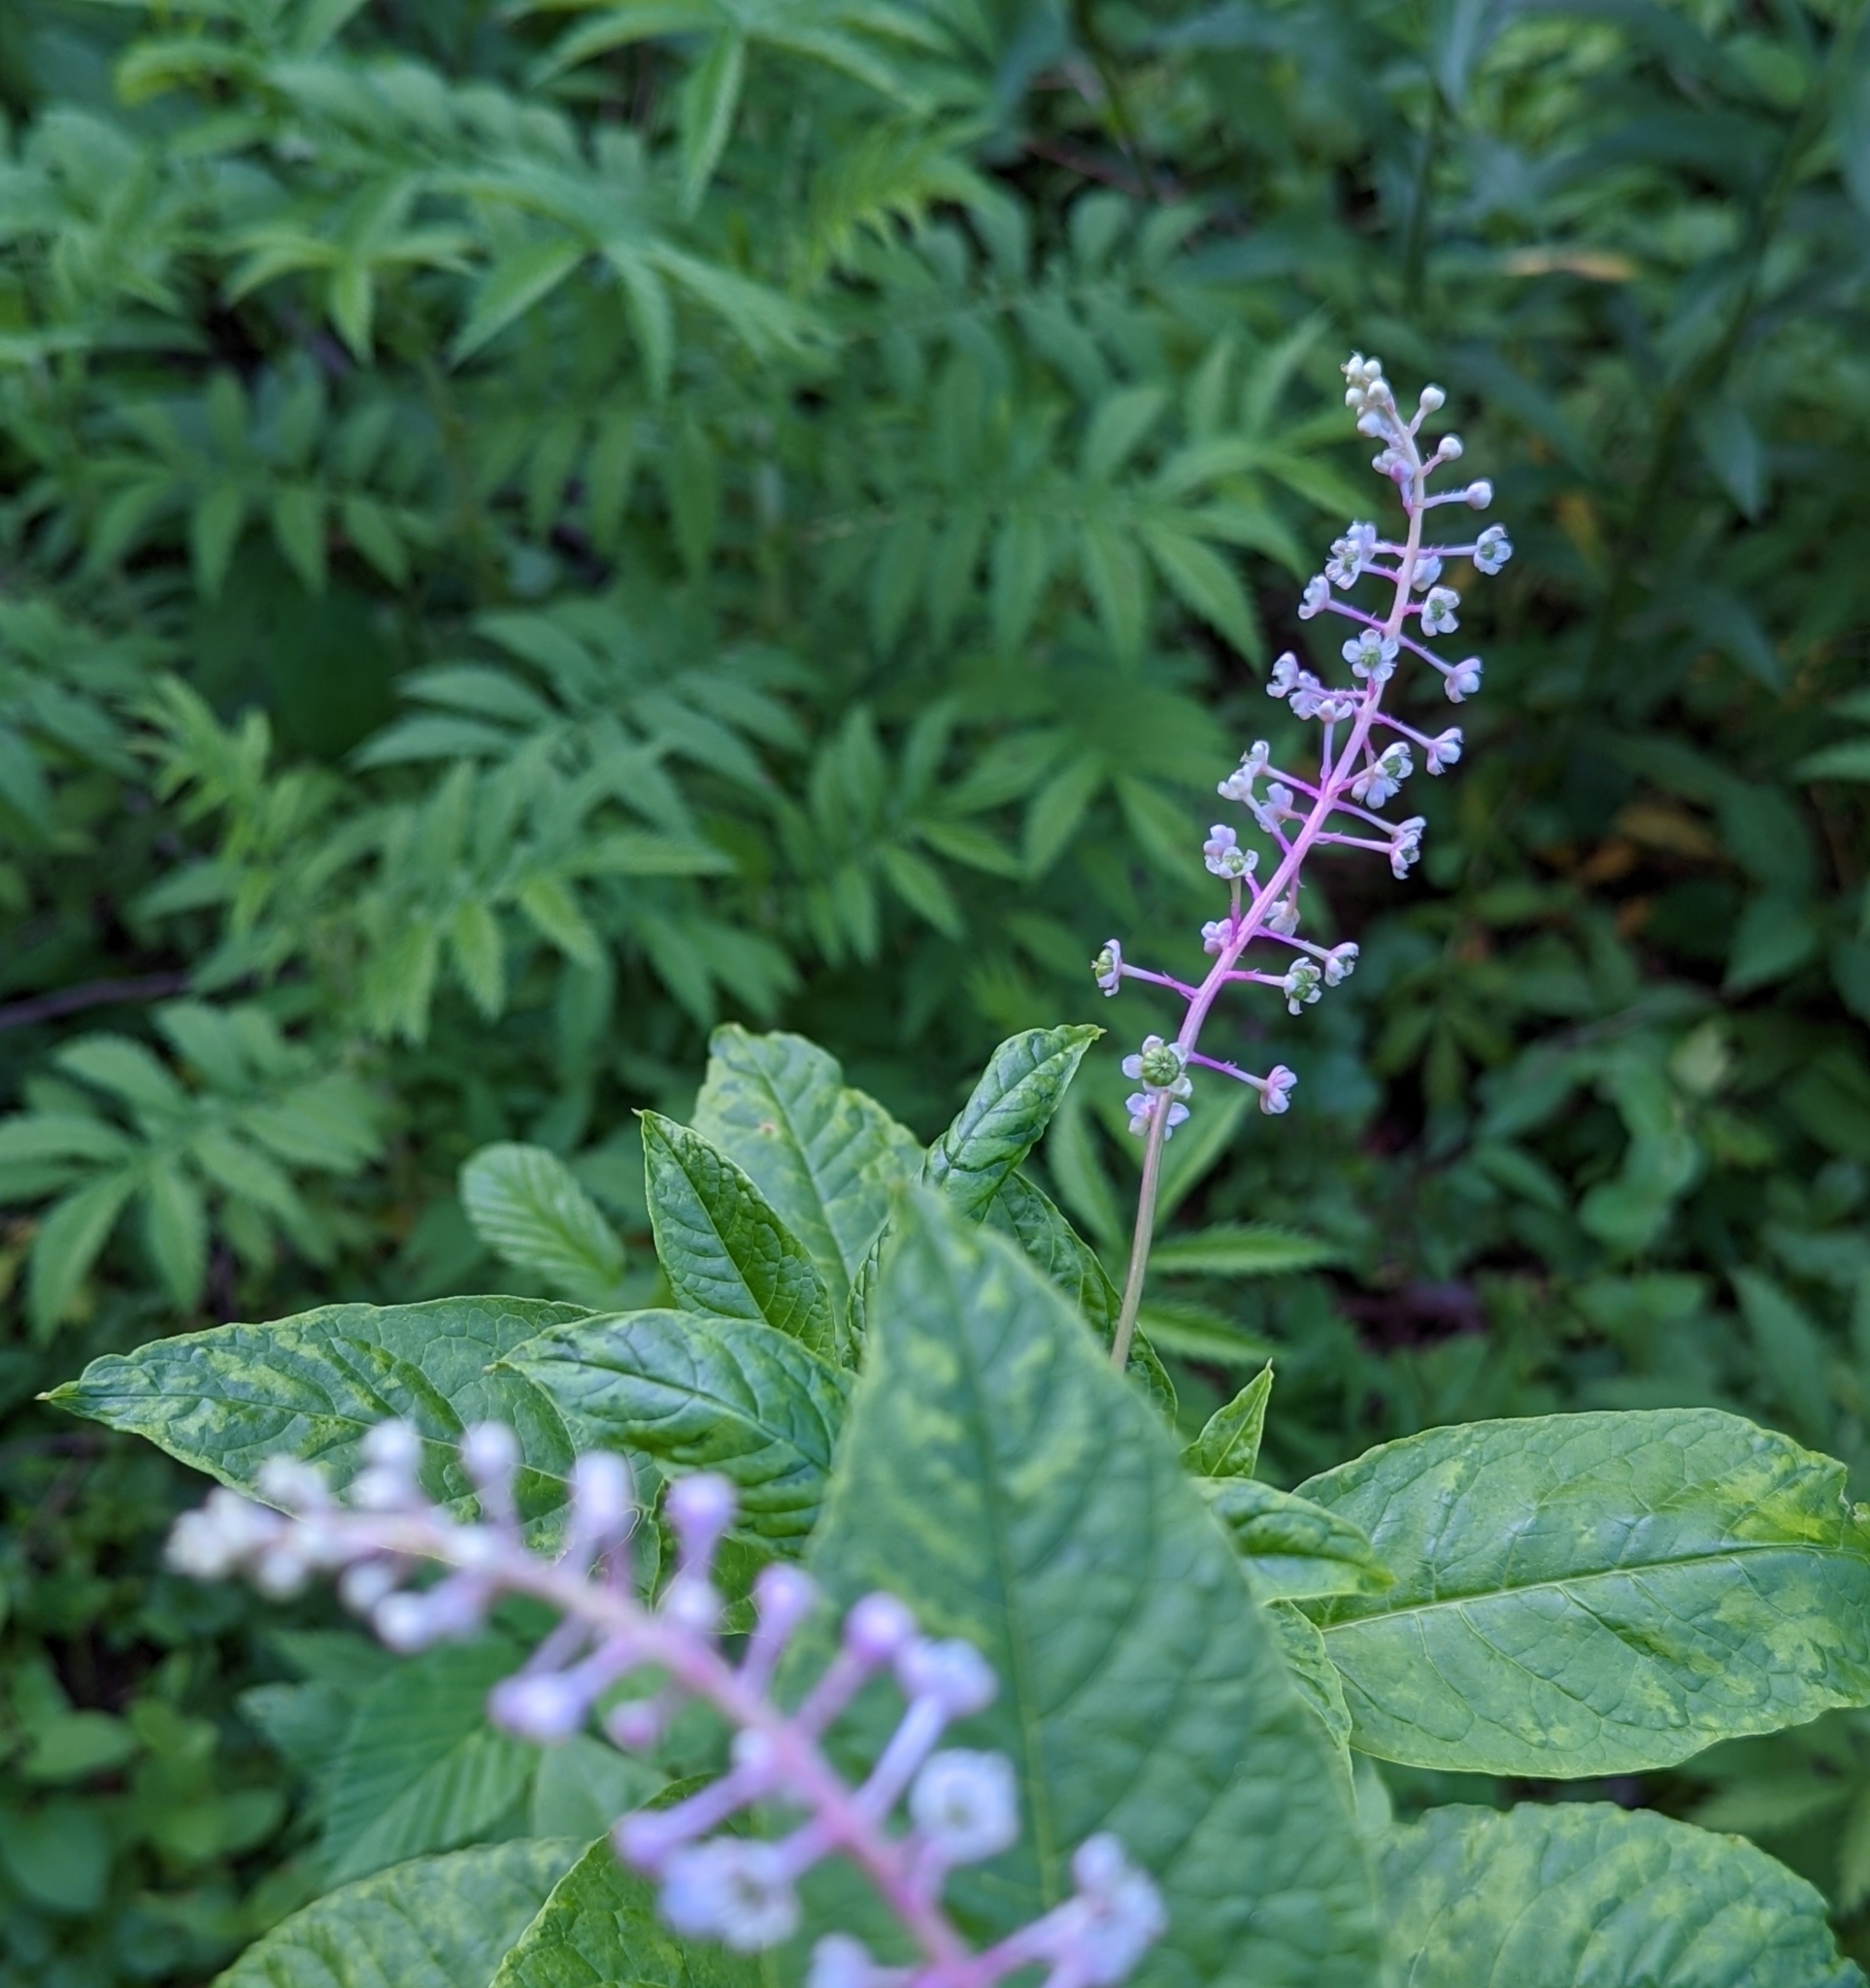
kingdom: Plantae
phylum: Tracheophyta
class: Magnoliopsida
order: Caryophyllales
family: Phytolaccaceae
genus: Phytolacca
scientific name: Phytolacca americana
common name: American pokeweed
